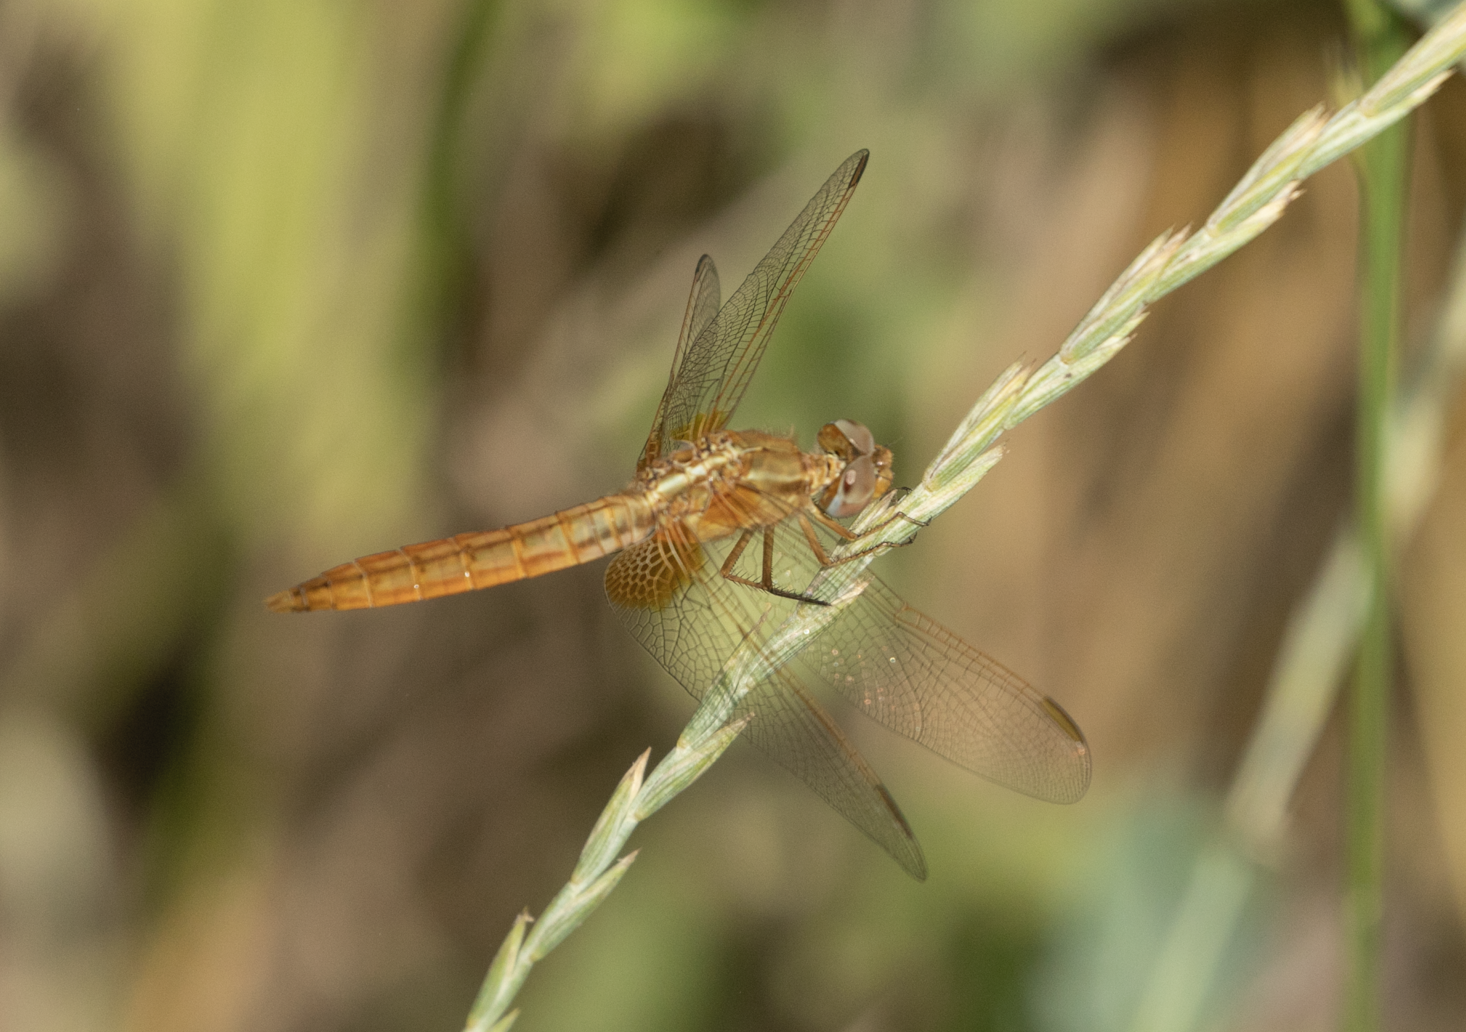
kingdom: Animalia
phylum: Arthropoda
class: Insecta
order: Odonata
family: Libellulidae
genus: Crocothemis
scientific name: Crocothemis erythraea
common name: Scarlet dragonfly
